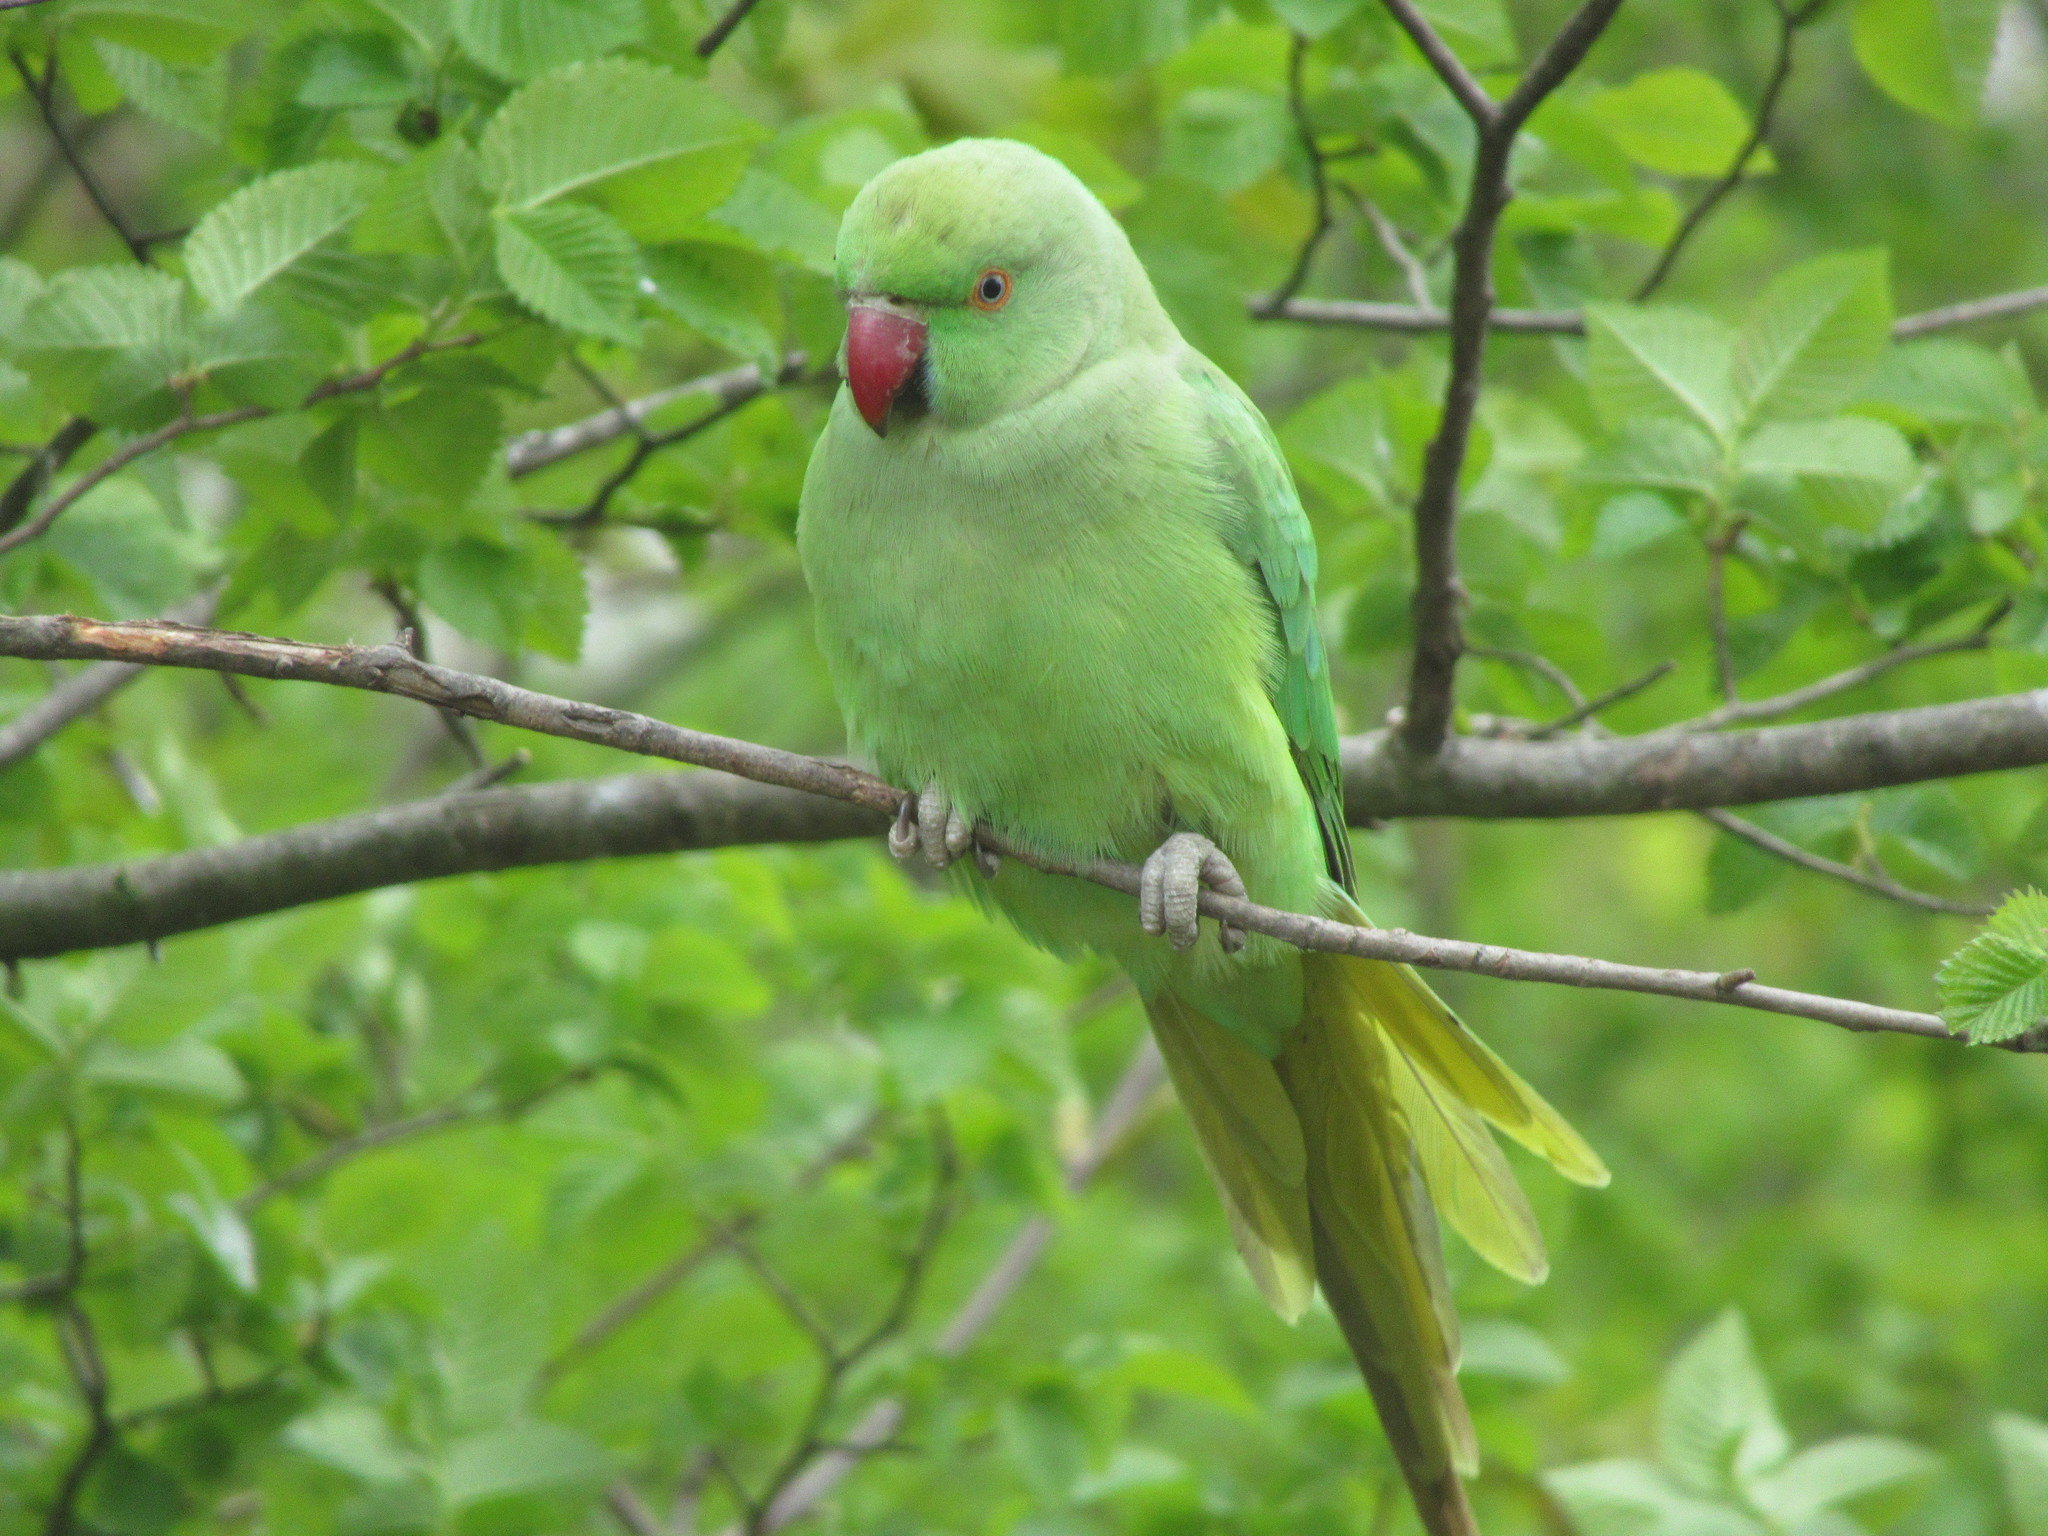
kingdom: Animalia
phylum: Chordata
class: Aves
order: Psittaciformes
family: Psittacidae
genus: Psittacula
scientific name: Psittacula krameri
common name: Rose-ringed parakeet
